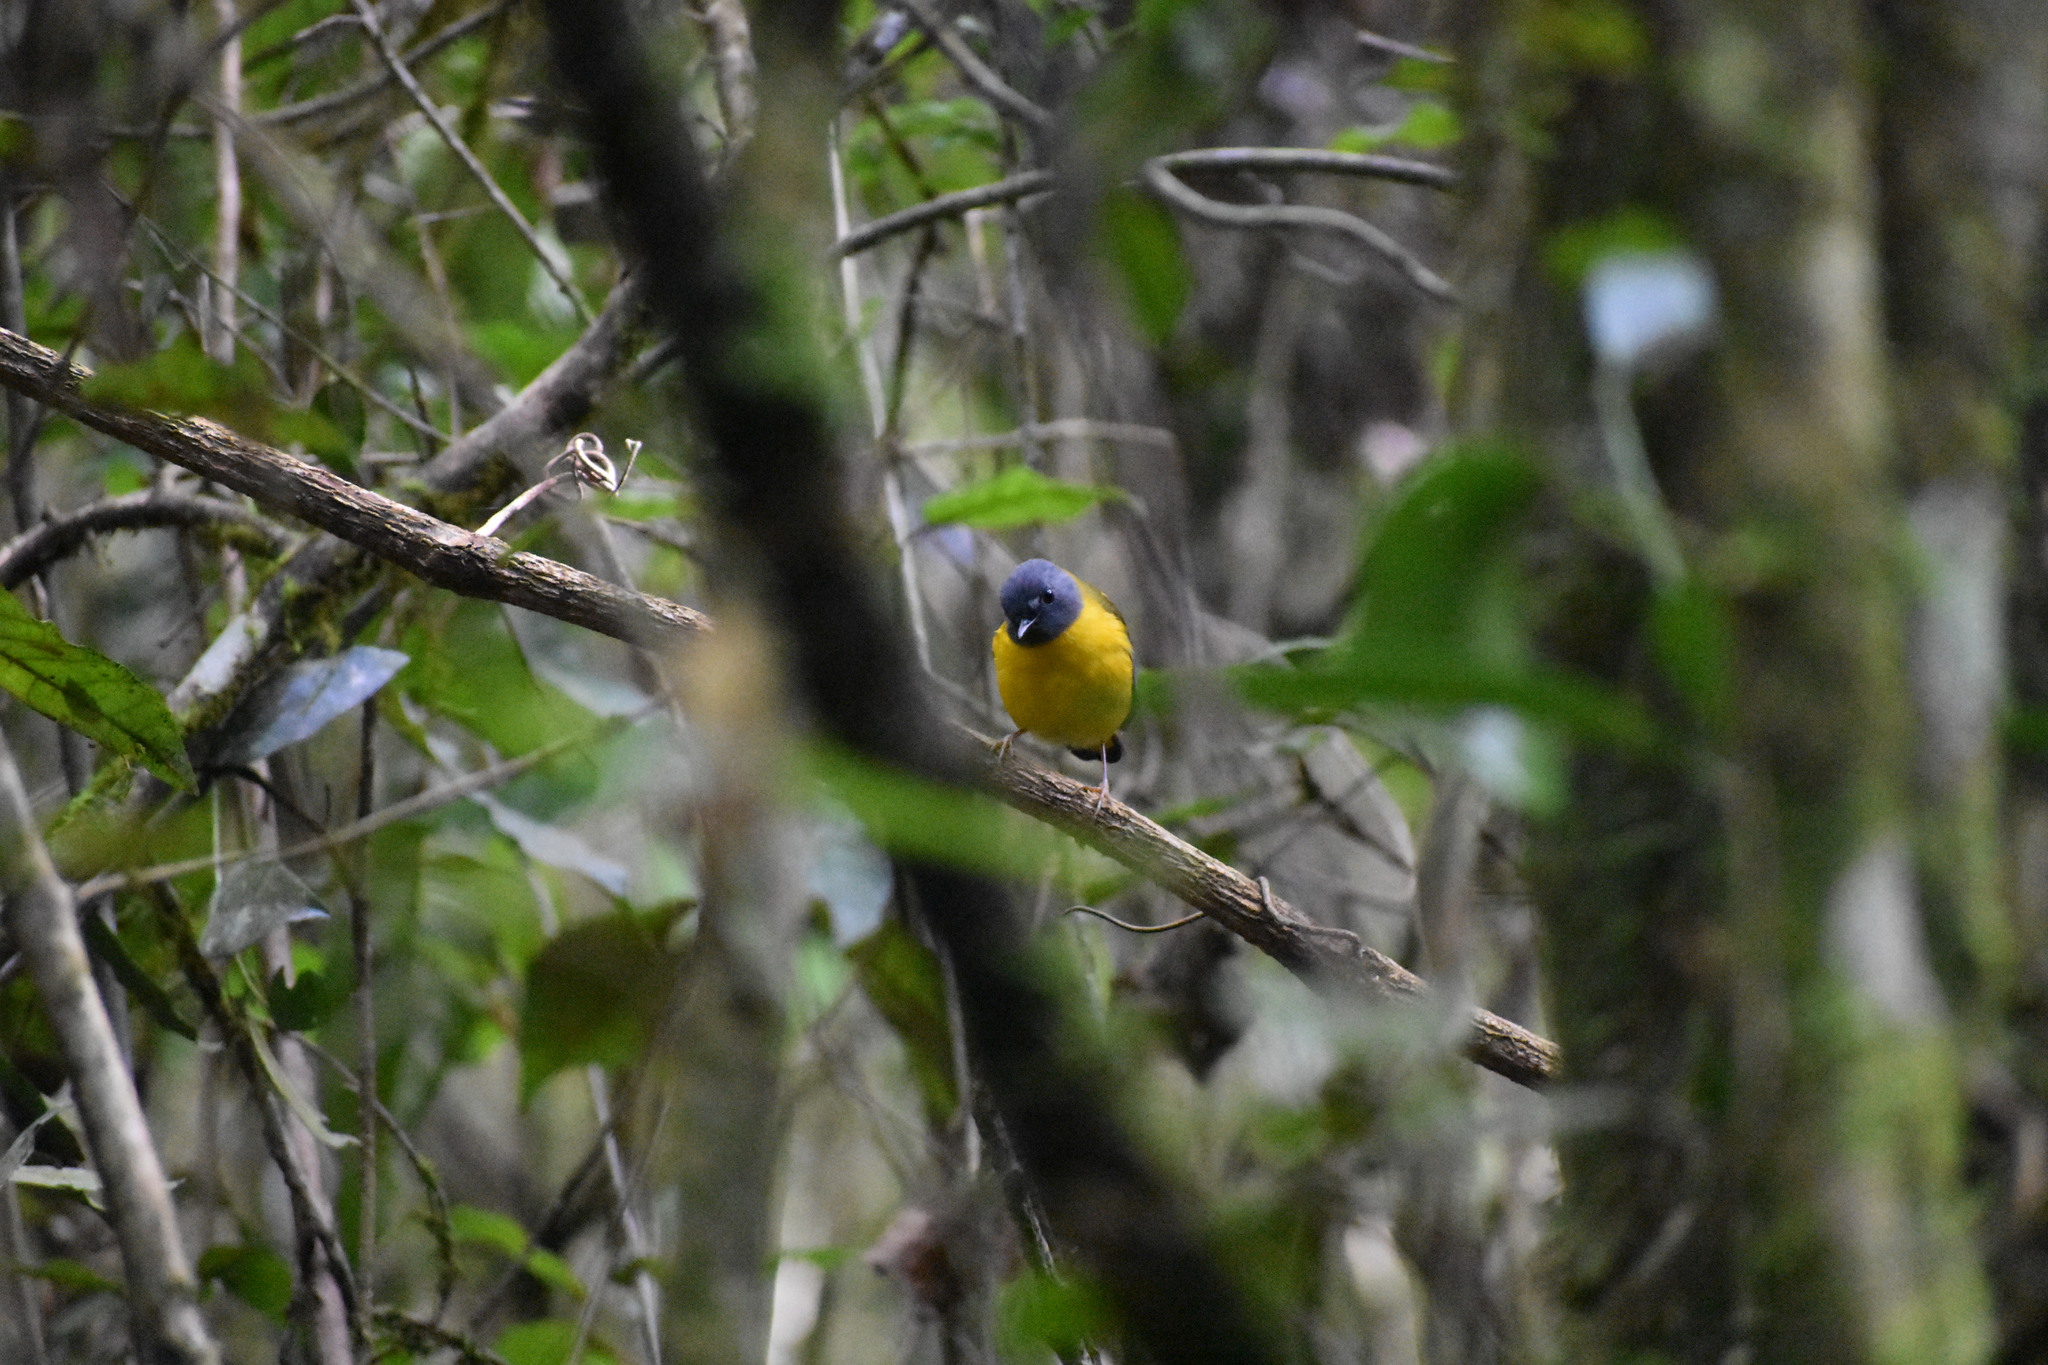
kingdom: Animalia
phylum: Chordata
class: Aves
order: Passeriformes
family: Muscicapidae
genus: Pogonocichla
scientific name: Pogonocichla stellata
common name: White-starred robin
